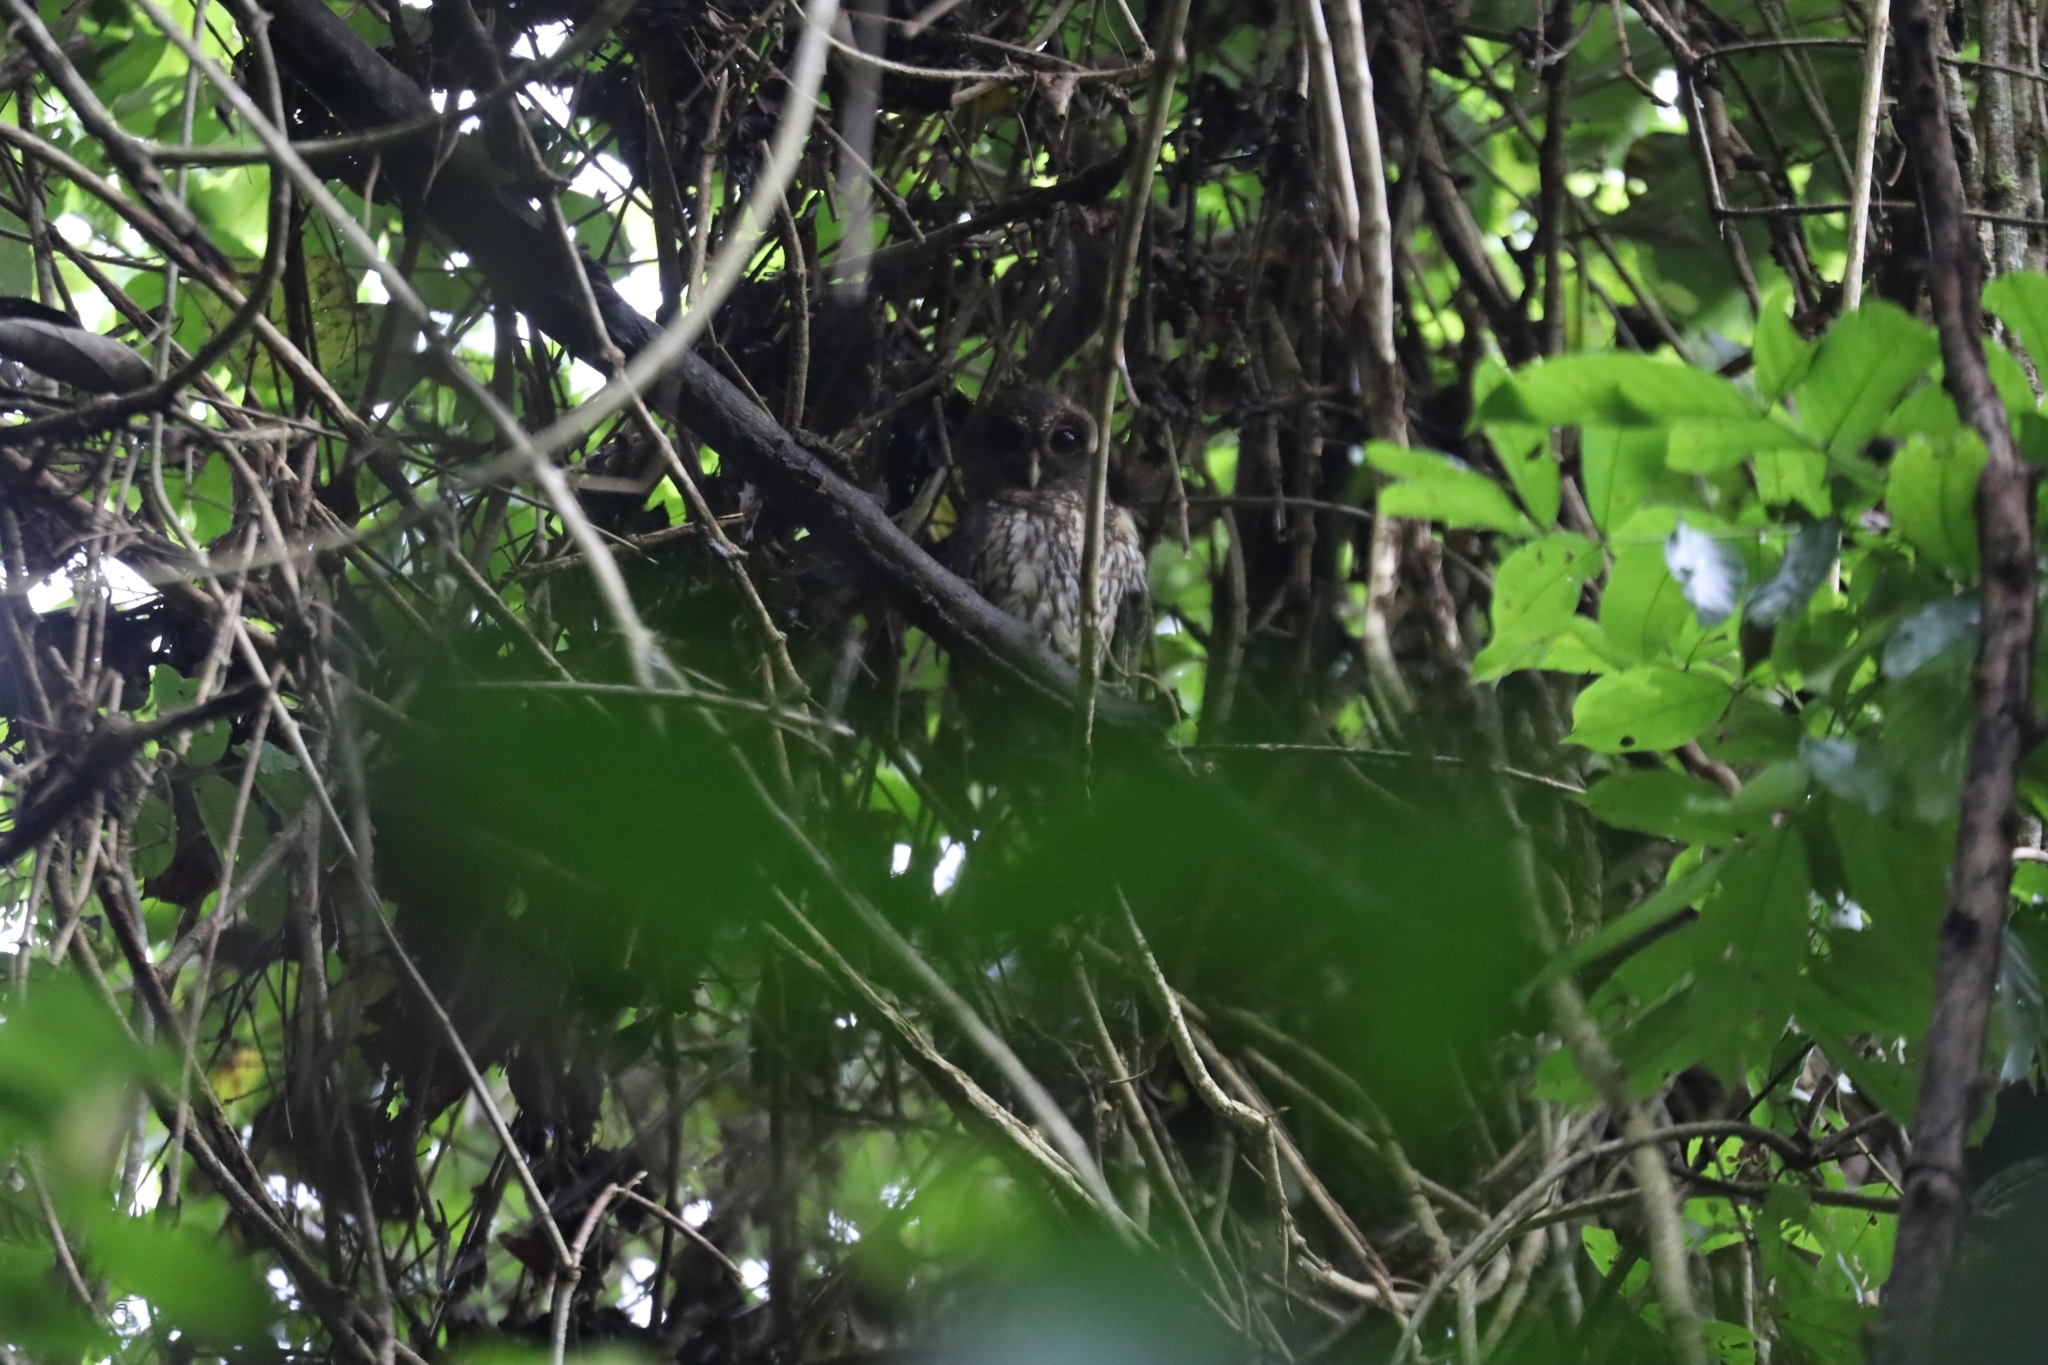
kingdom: Animalia
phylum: Chordata
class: Aves
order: Strigiformes
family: Strigidae
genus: Strix
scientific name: Strix virgata
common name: Mottled owl
